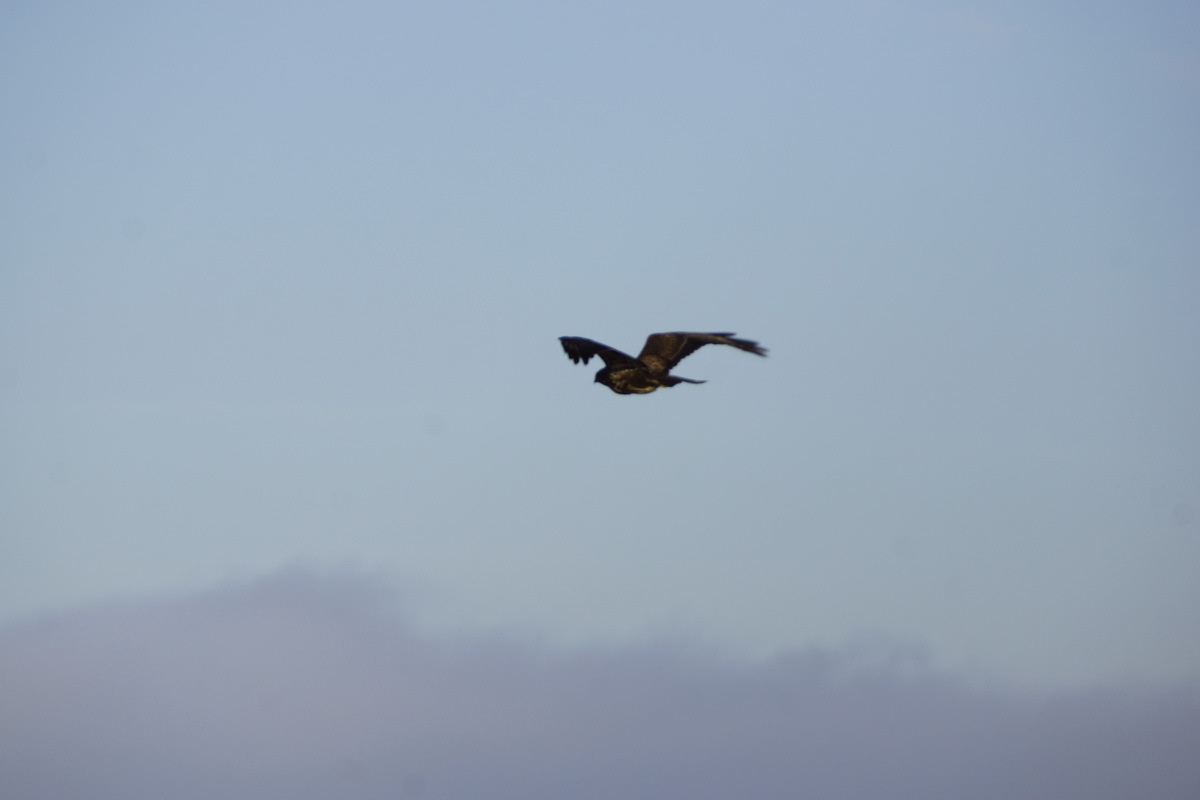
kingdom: Animalia
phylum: Chordata
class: Aves
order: Accipitriformes
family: Accipitridae
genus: Buteo
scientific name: Buteo buteo
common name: Common buzzard
